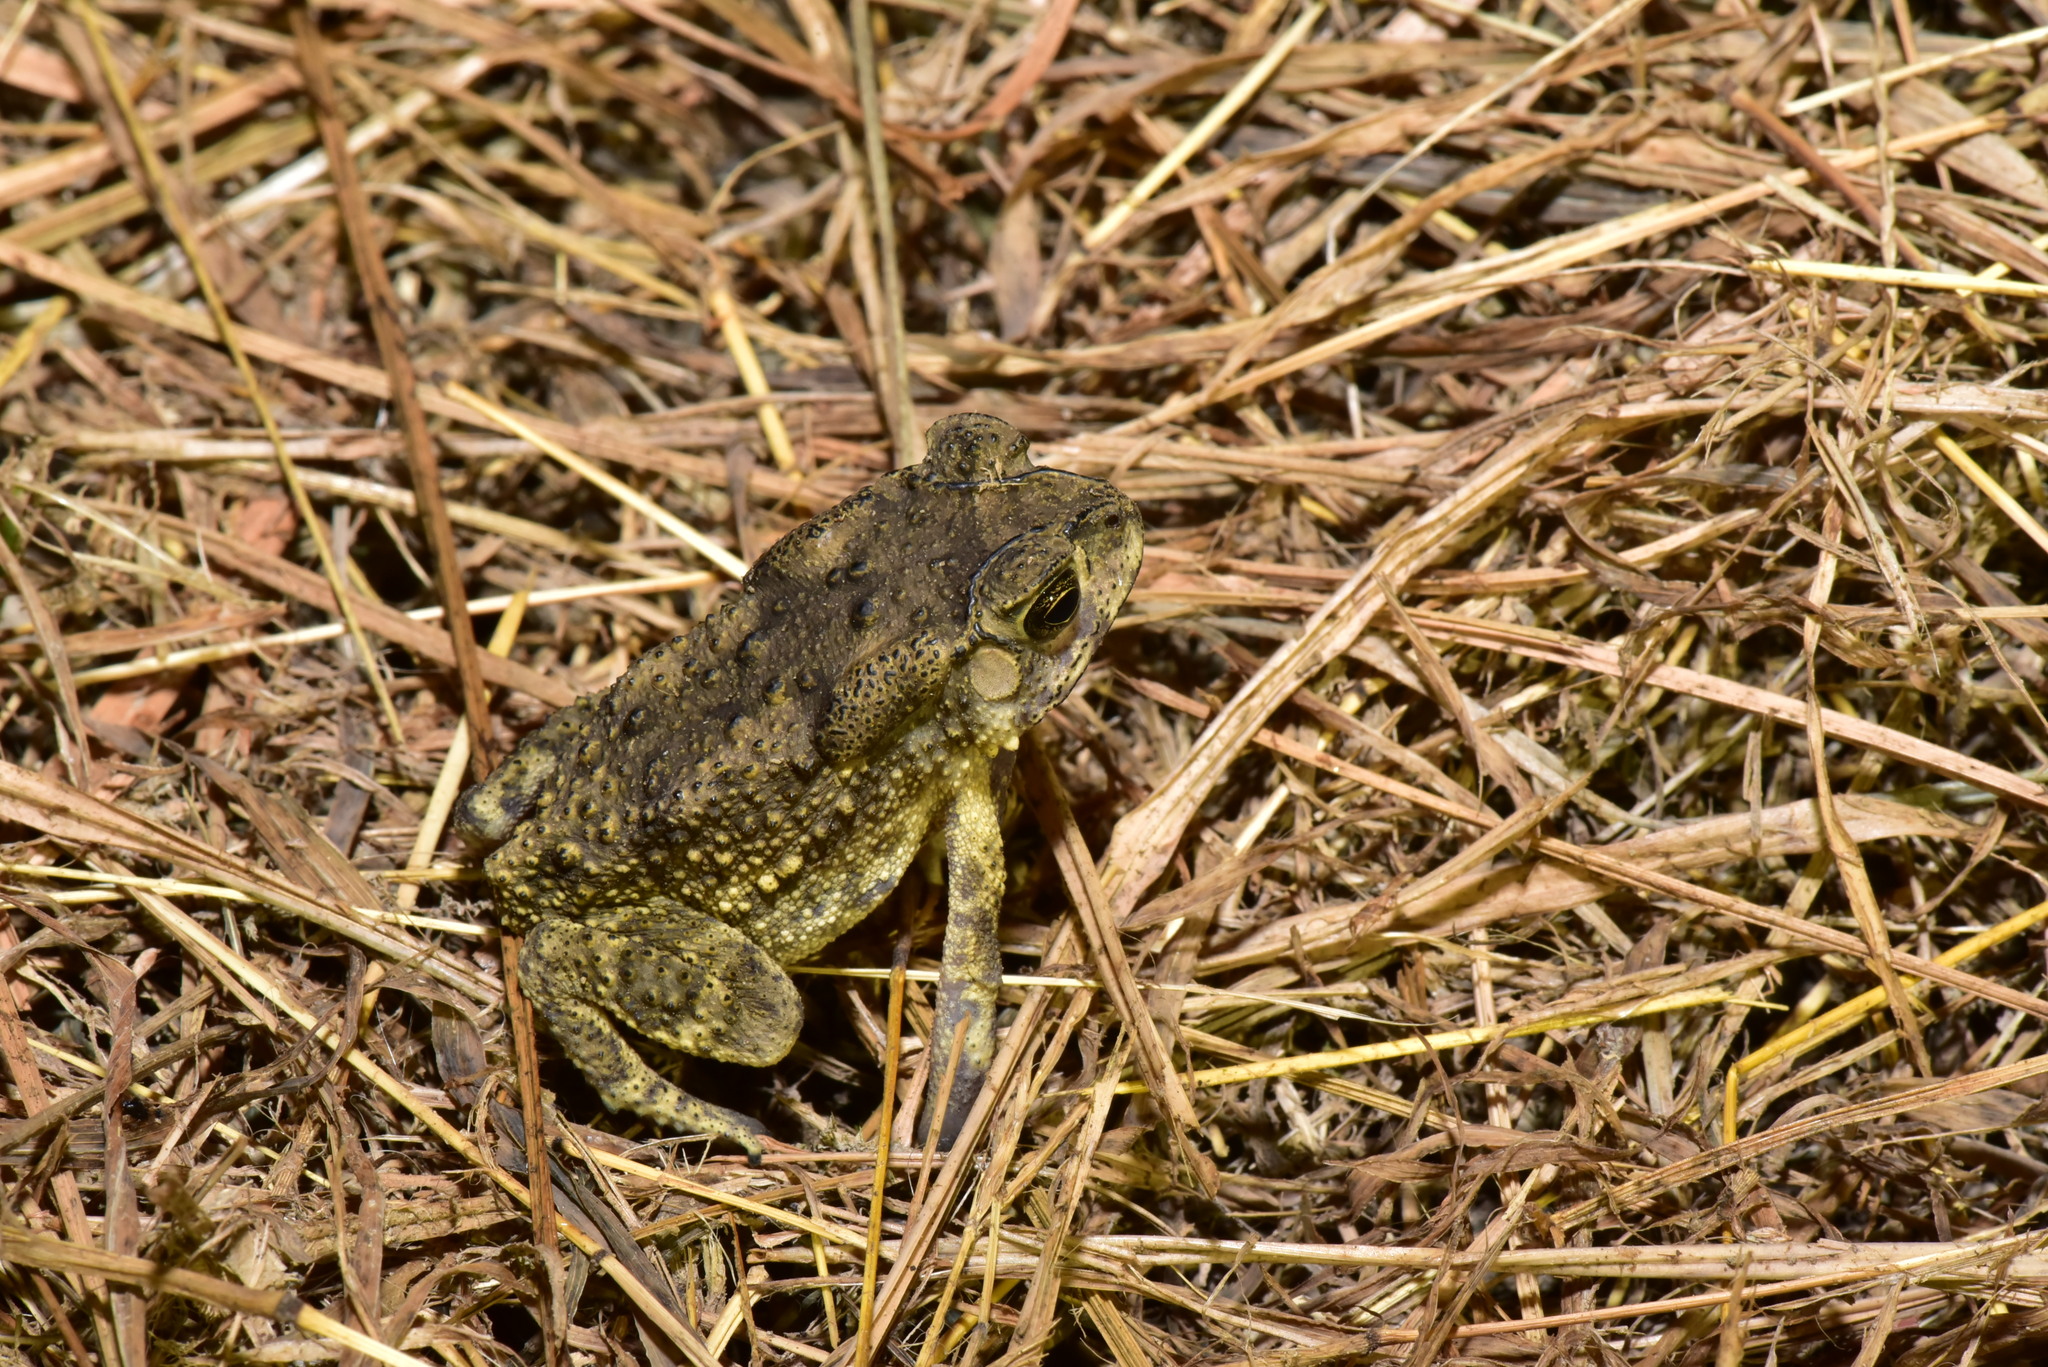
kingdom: Animalia
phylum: Chordata
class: Amphibia
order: Anura
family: Bufonidae
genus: Duttaphrynus
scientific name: Duttaphrynus melanostictus
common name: Common sunda toad
